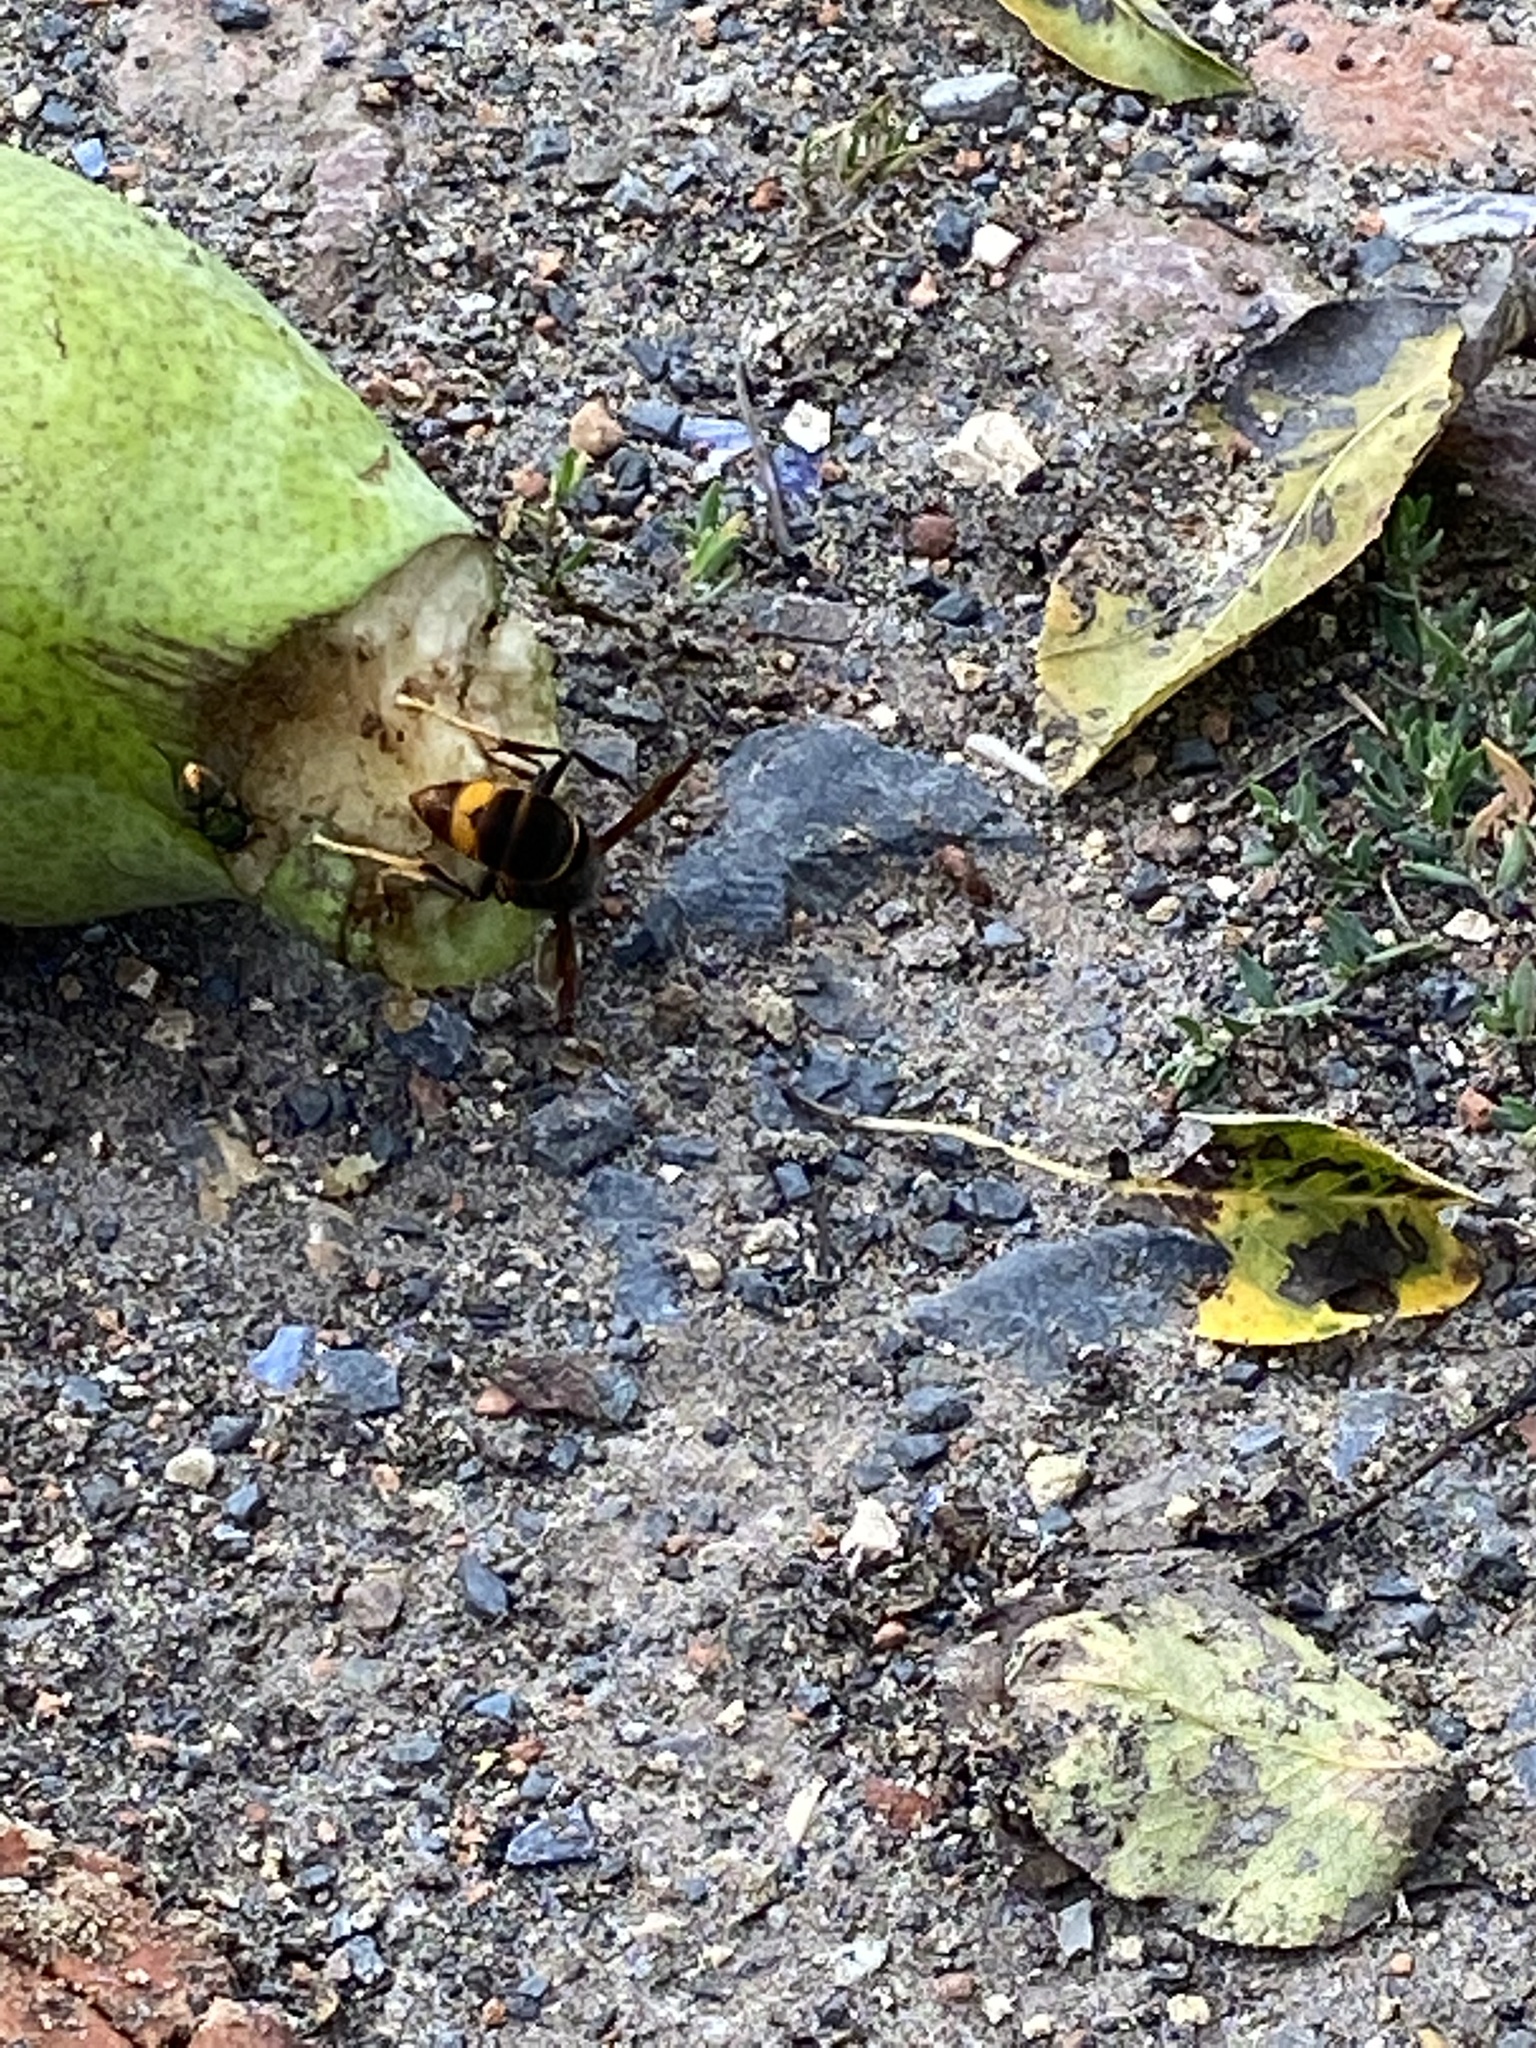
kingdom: Animalia
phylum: Arthropoda
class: Insecta
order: Hymenoptera
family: Vespidae
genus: Vespa
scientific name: Vespa velutina
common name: Asian hornet
